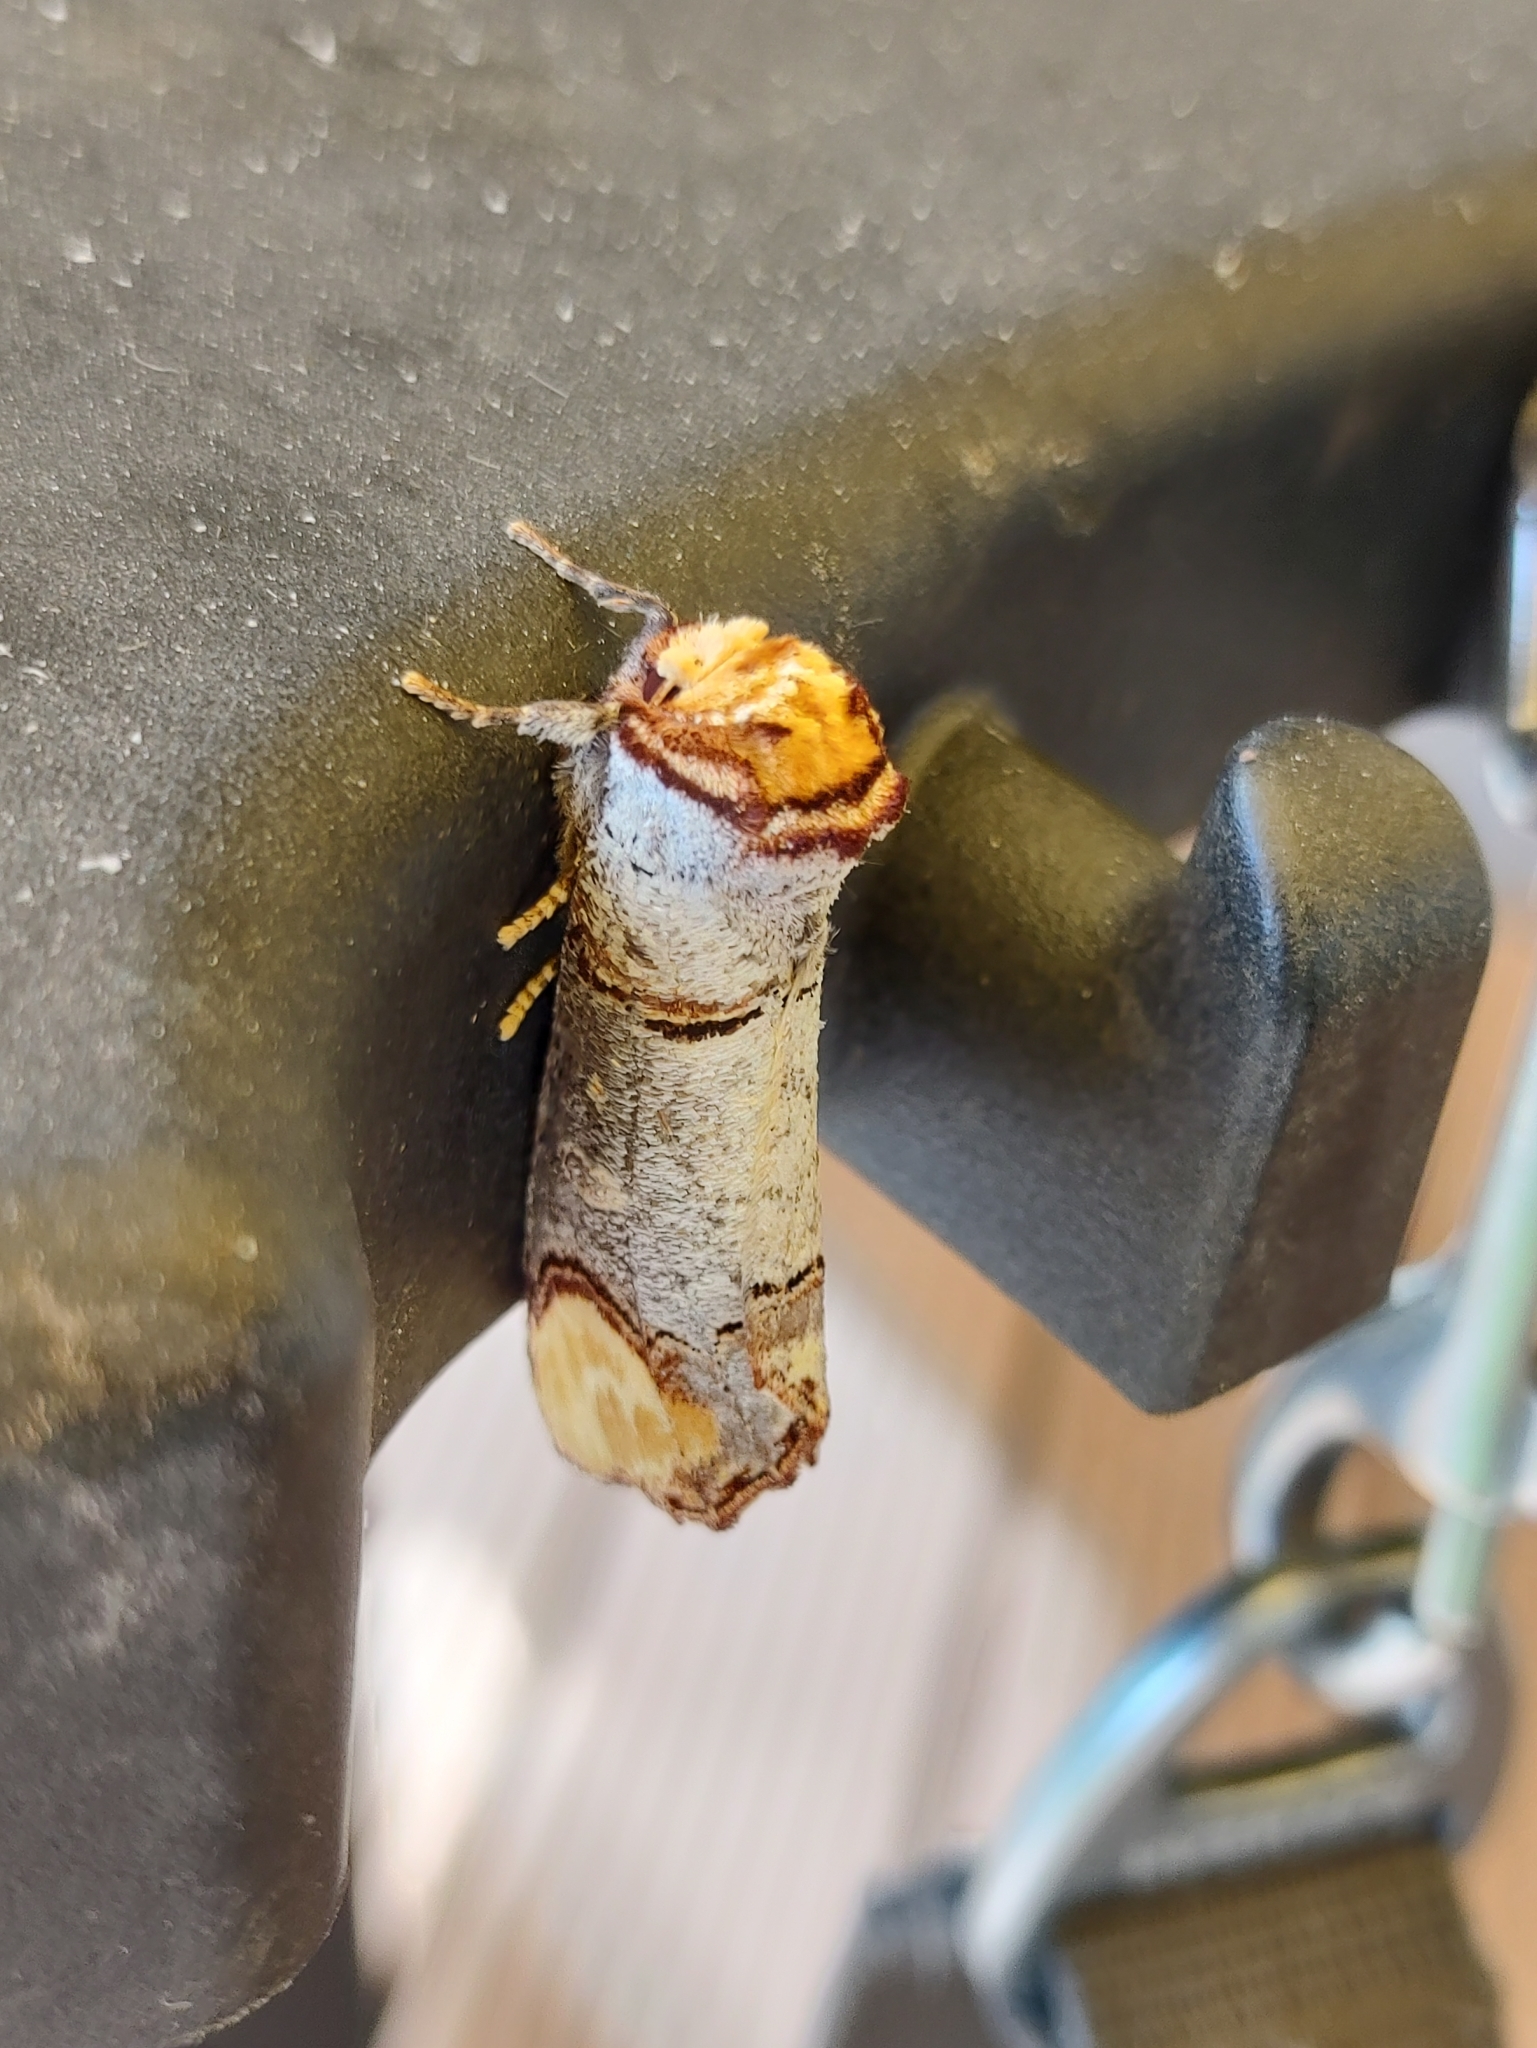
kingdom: Animalia
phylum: Arthropoda
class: Insecta
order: Lepidoptera
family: Notodontidae
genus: Phalera
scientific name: Phalera bucephala
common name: Buff-tip
